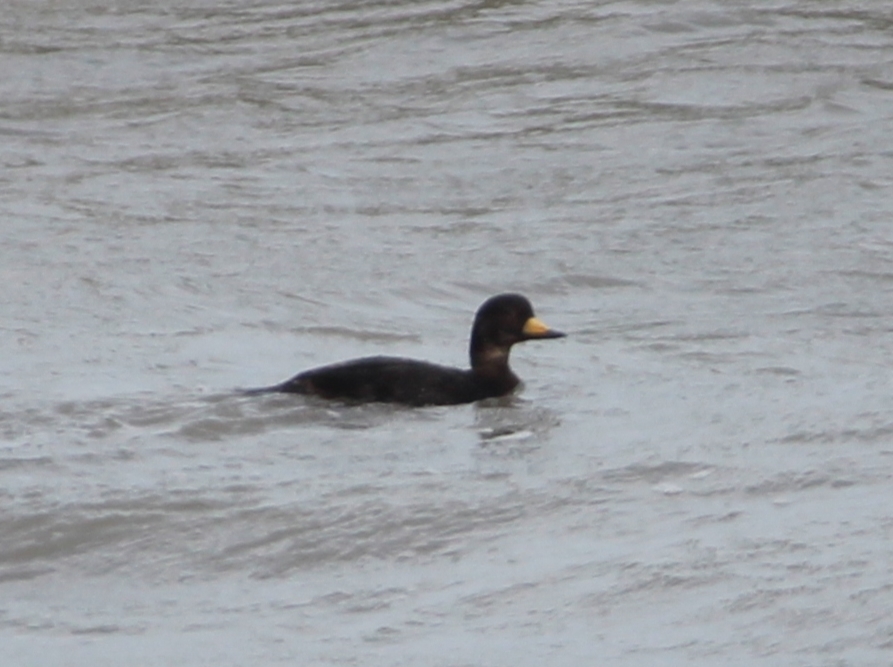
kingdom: Animalia
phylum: Chordata
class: Aves
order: Anseriformes
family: Anatidae
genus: Melanitta
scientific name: Melanitta americana
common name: Black scoter
